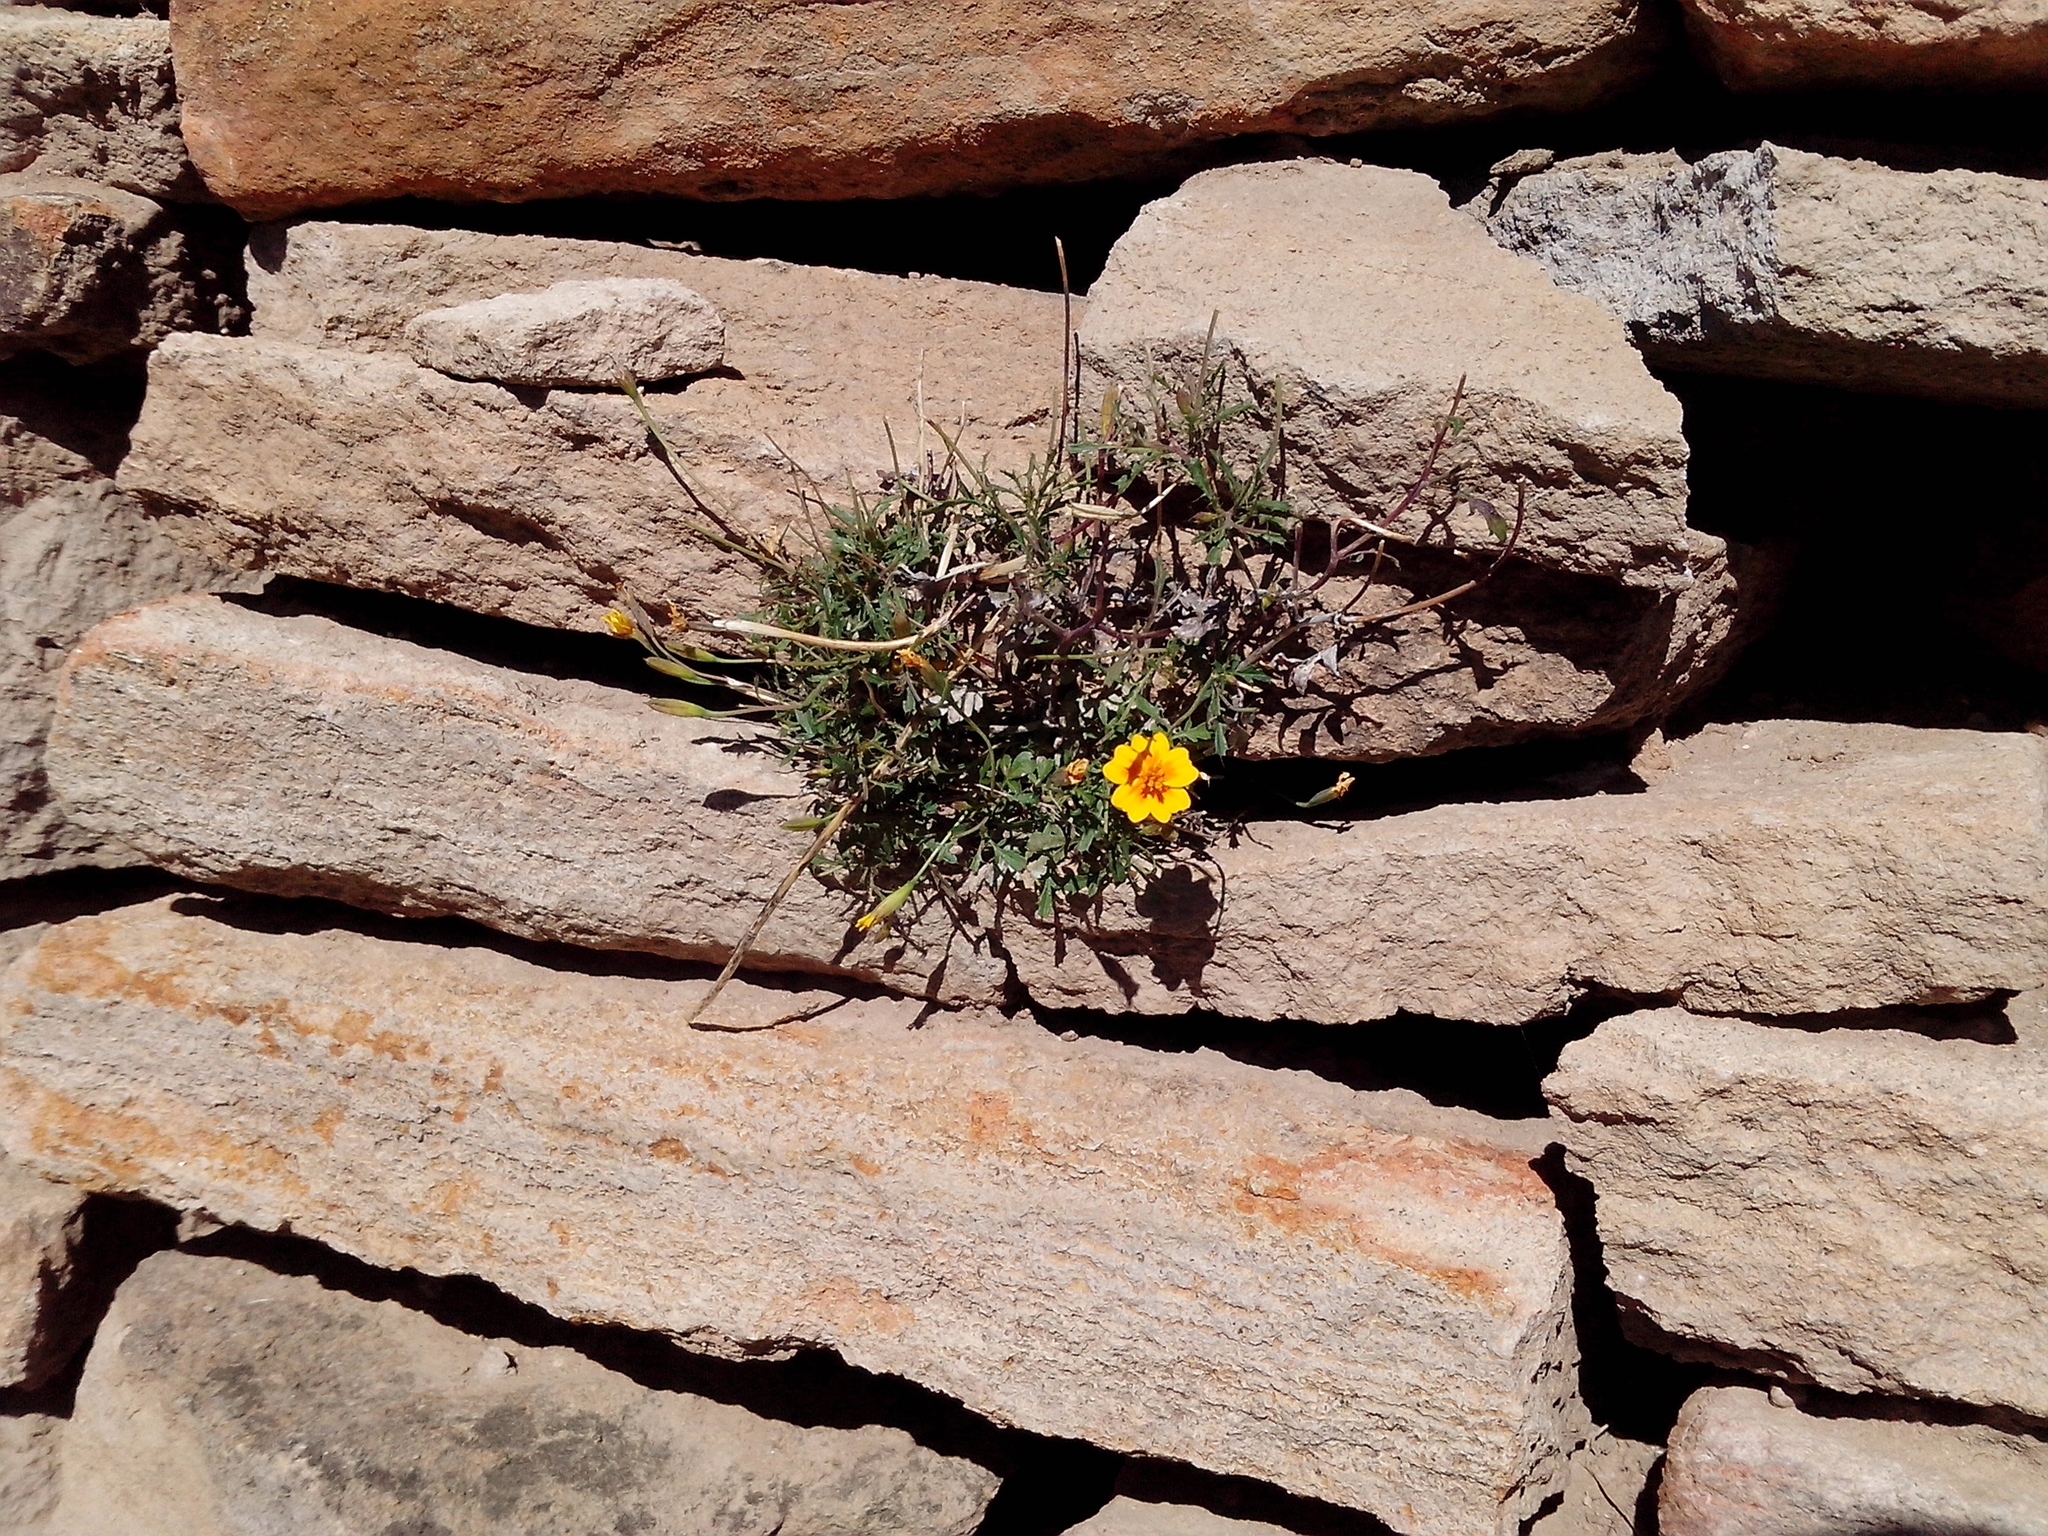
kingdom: Plantae
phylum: Tracheophyta
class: Magnoliopsida
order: Asterales
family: Asteraceae
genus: Tagetes
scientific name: Tagetes lunulata
